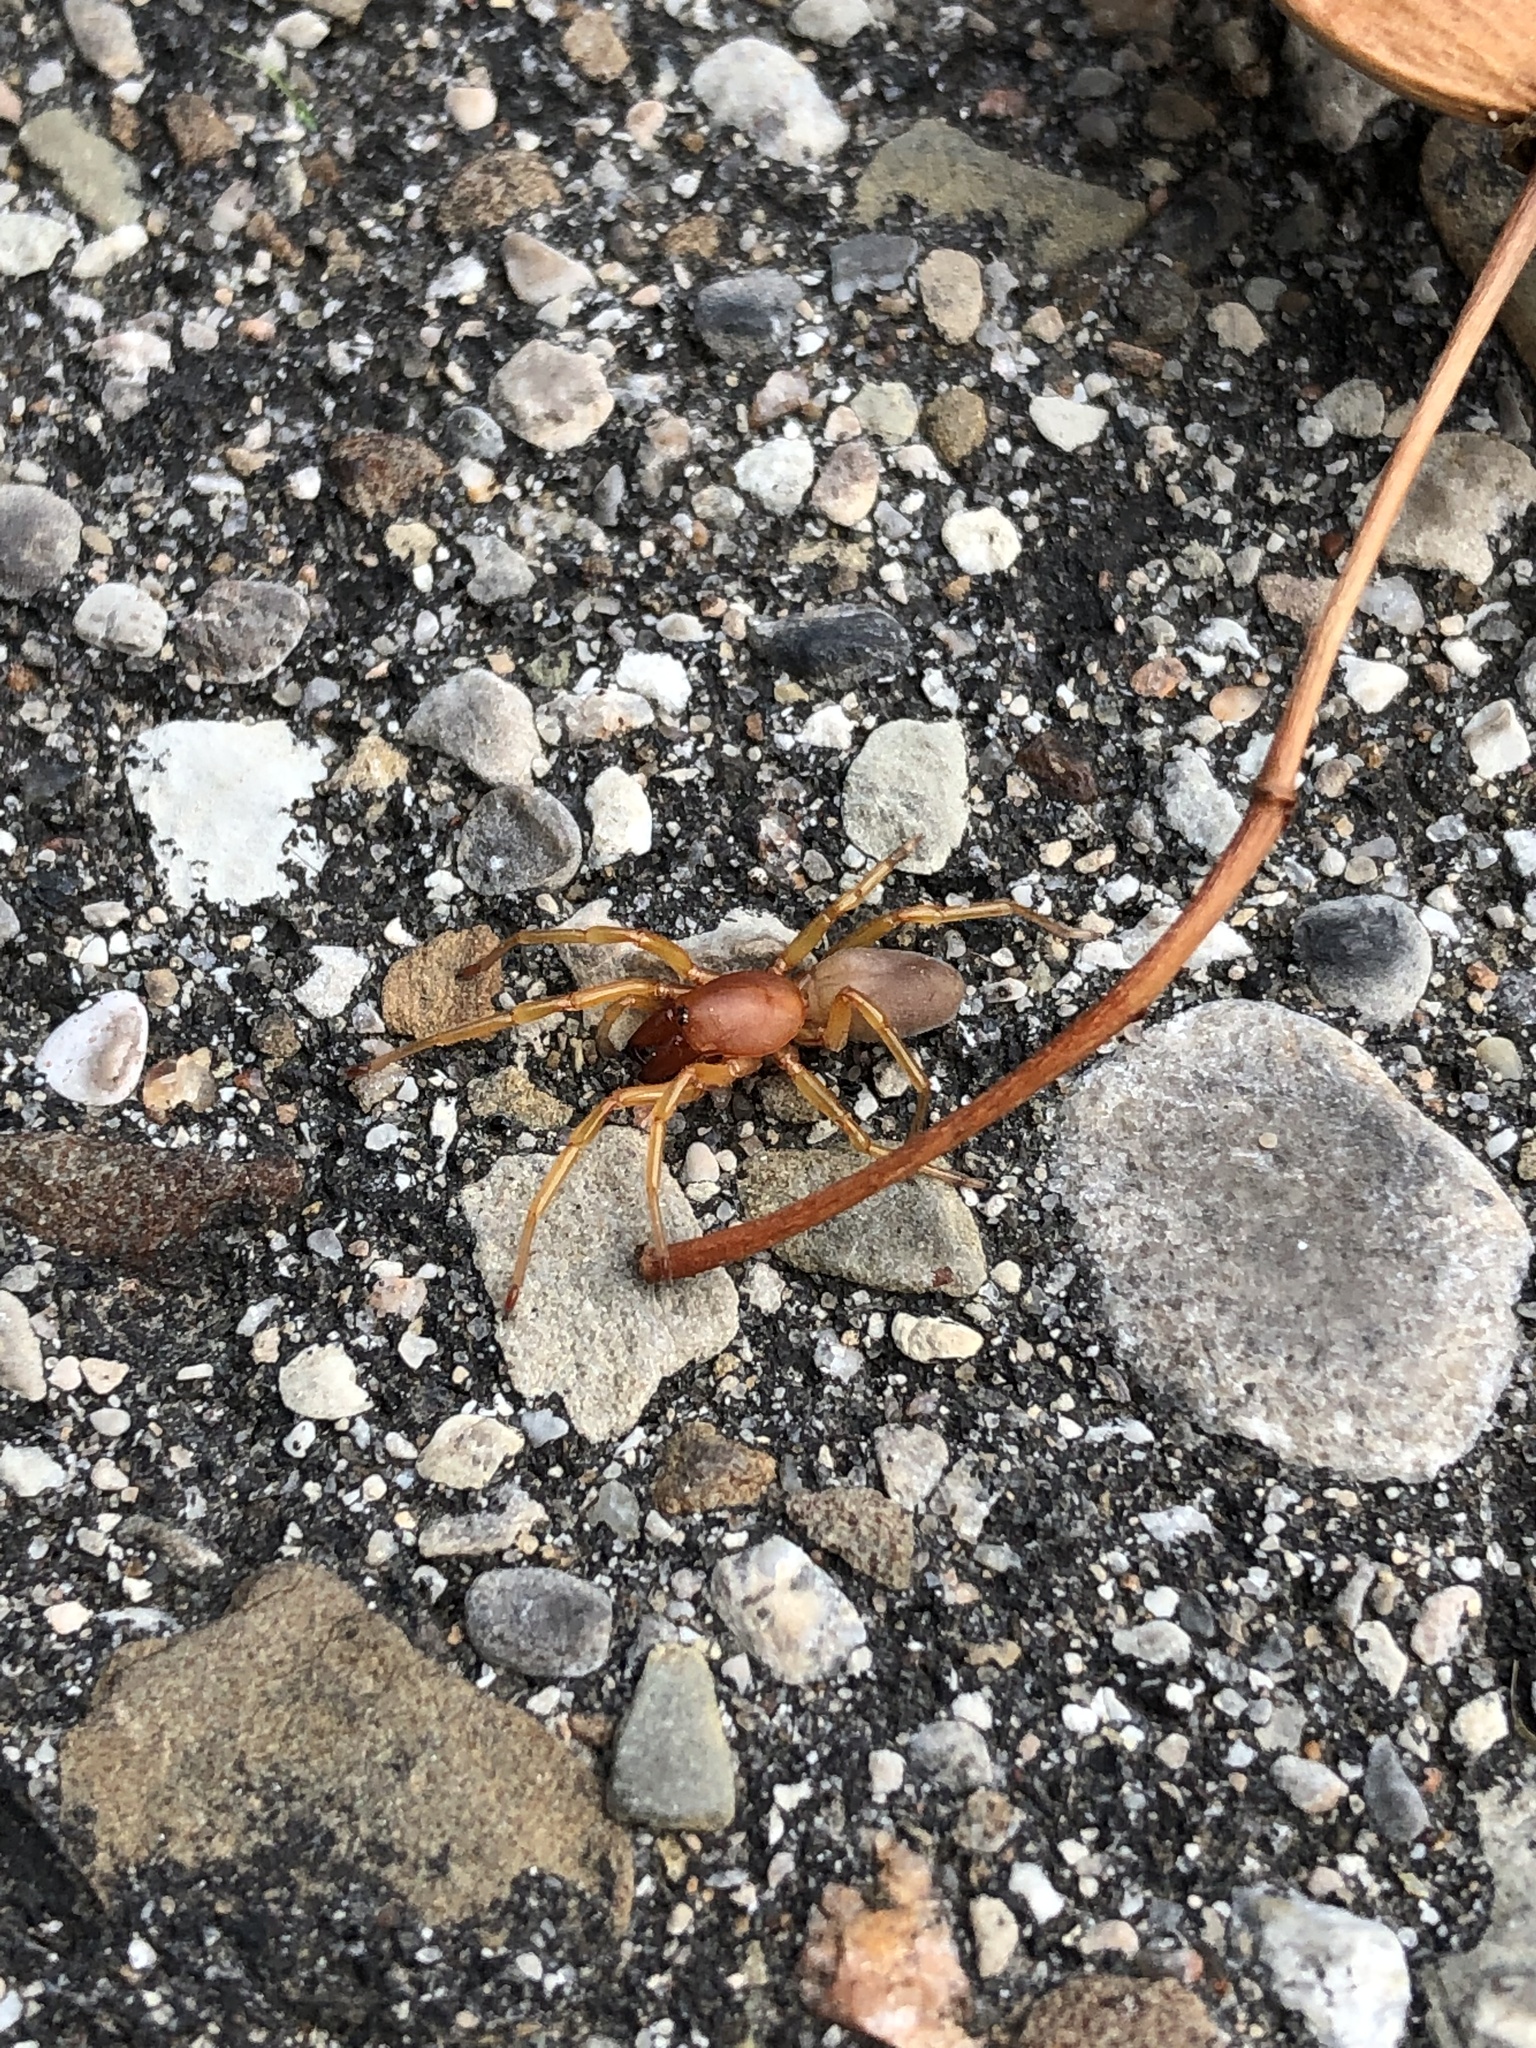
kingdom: Animalia
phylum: Arthropoda
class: Arachnida
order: Araneae
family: Dysderidae
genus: Dysdera
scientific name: Dysdera crocata
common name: Woodlouse spider
